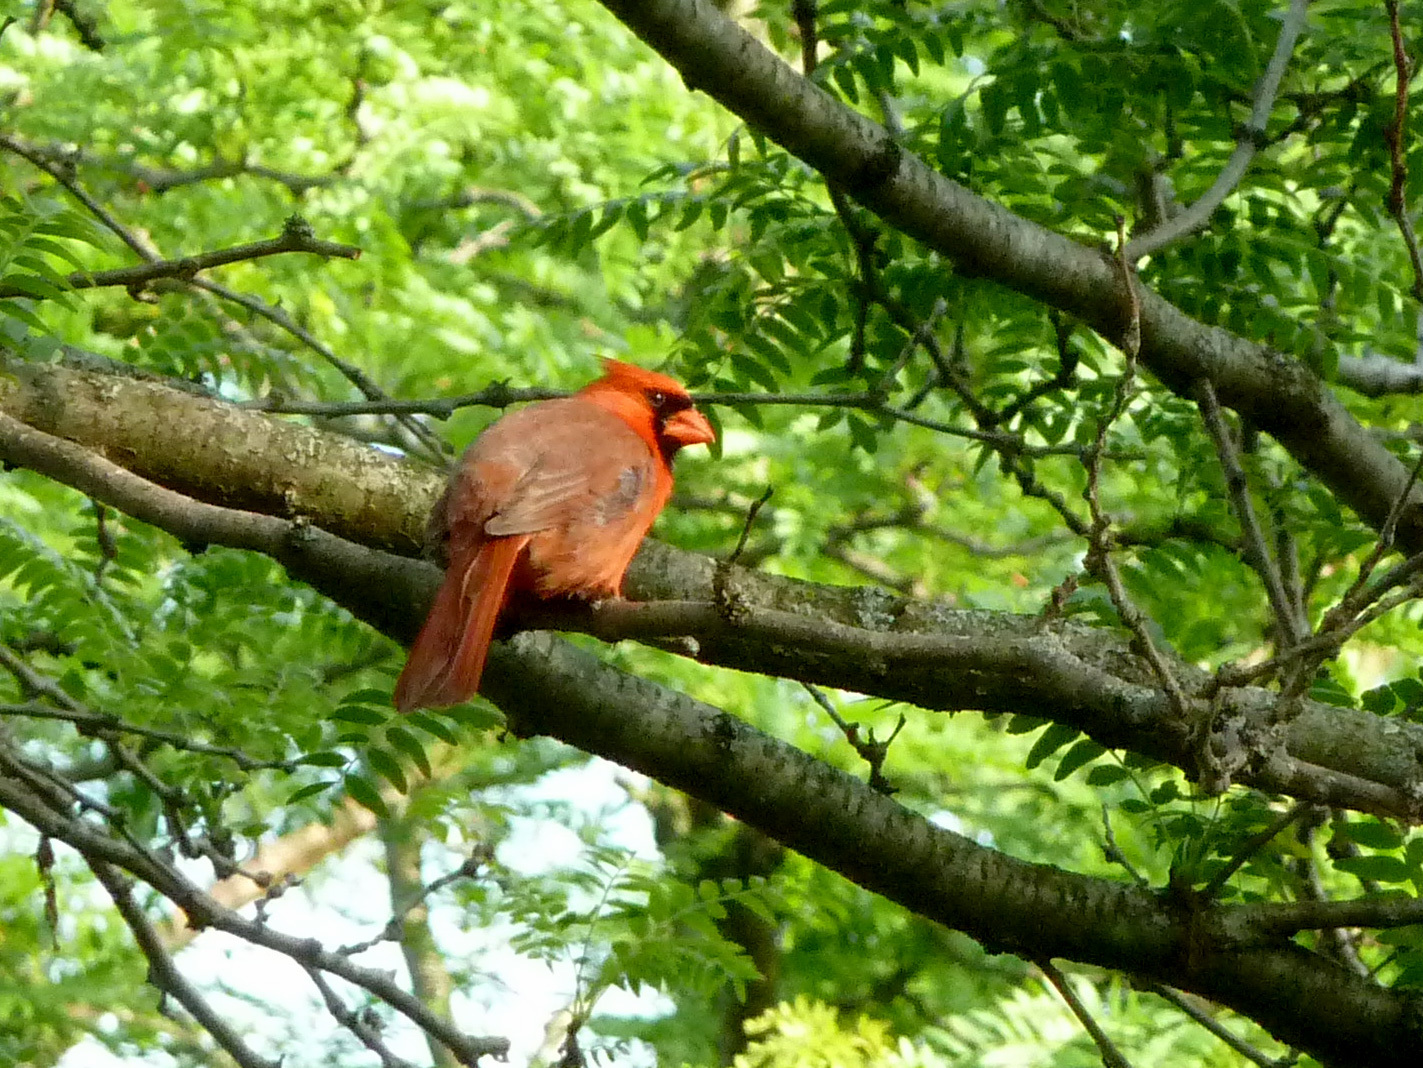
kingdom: Animalia
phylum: Chordata
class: Aves
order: Passeriformes
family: Cardinalidae
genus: Cardinalis
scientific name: Cardinalis cardinalis
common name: Northern cardinal
